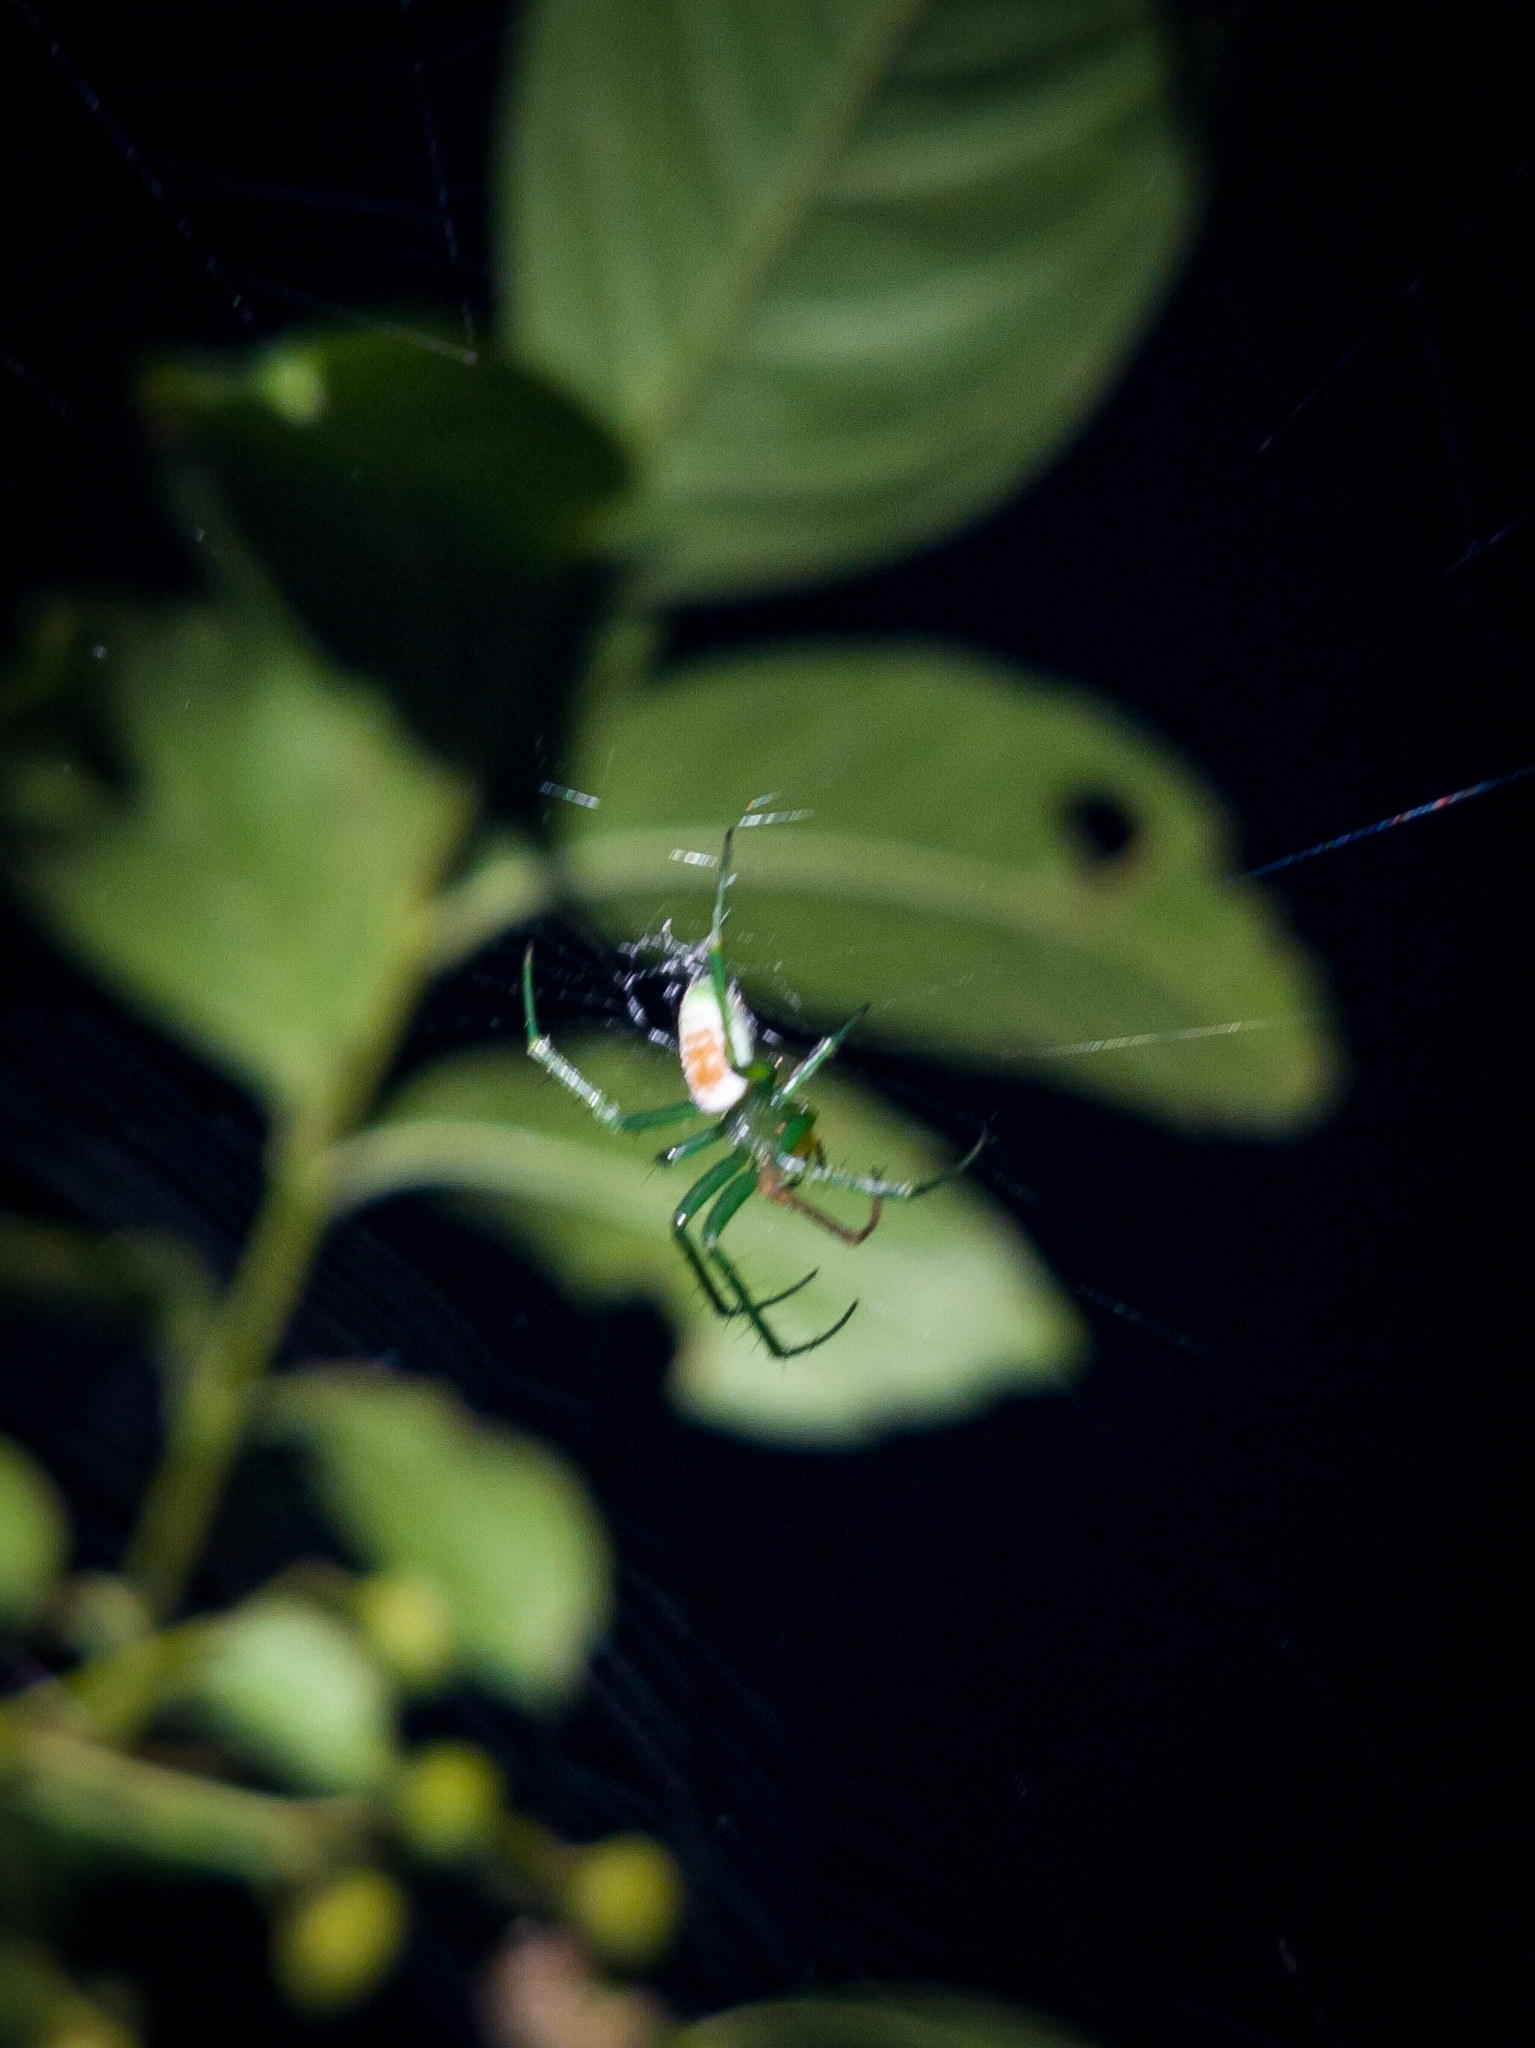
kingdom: Animalia
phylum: Arthropoda
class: Arachnida
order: Araneae
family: Araneidae
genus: Araneus
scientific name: Araneus viridisomus
